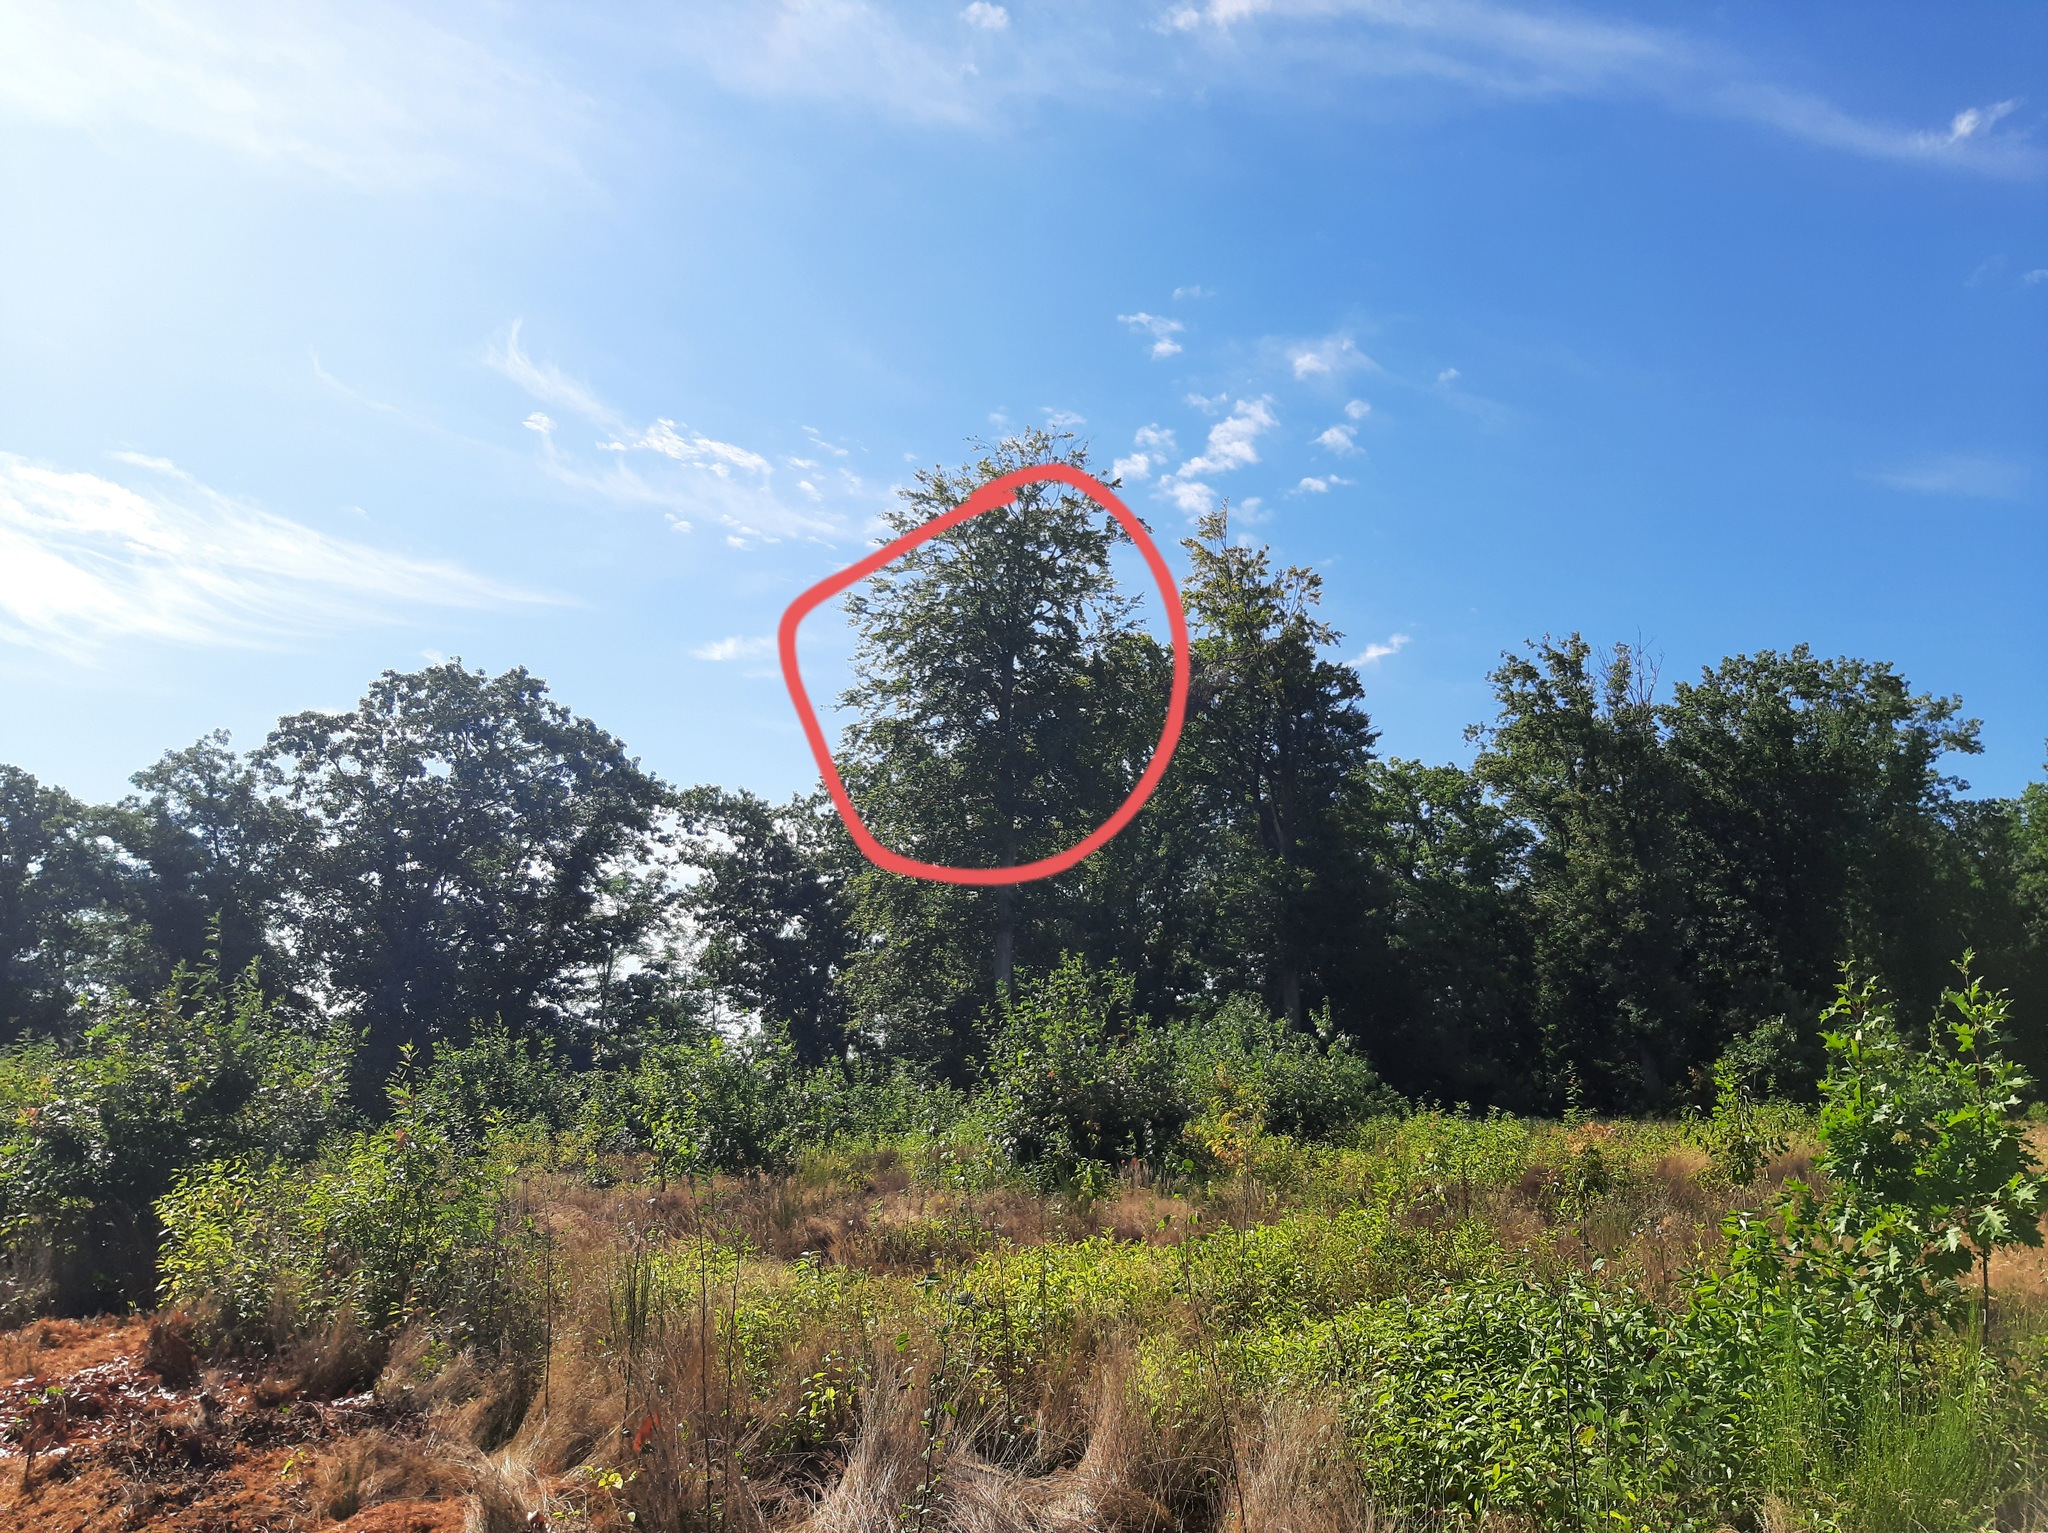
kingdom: Animalia
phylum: Arthropoda
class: Insecta
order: Hymenoptera
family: Vespidae
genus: Vespa
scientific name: Vespa velutina
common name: Asian hornet
